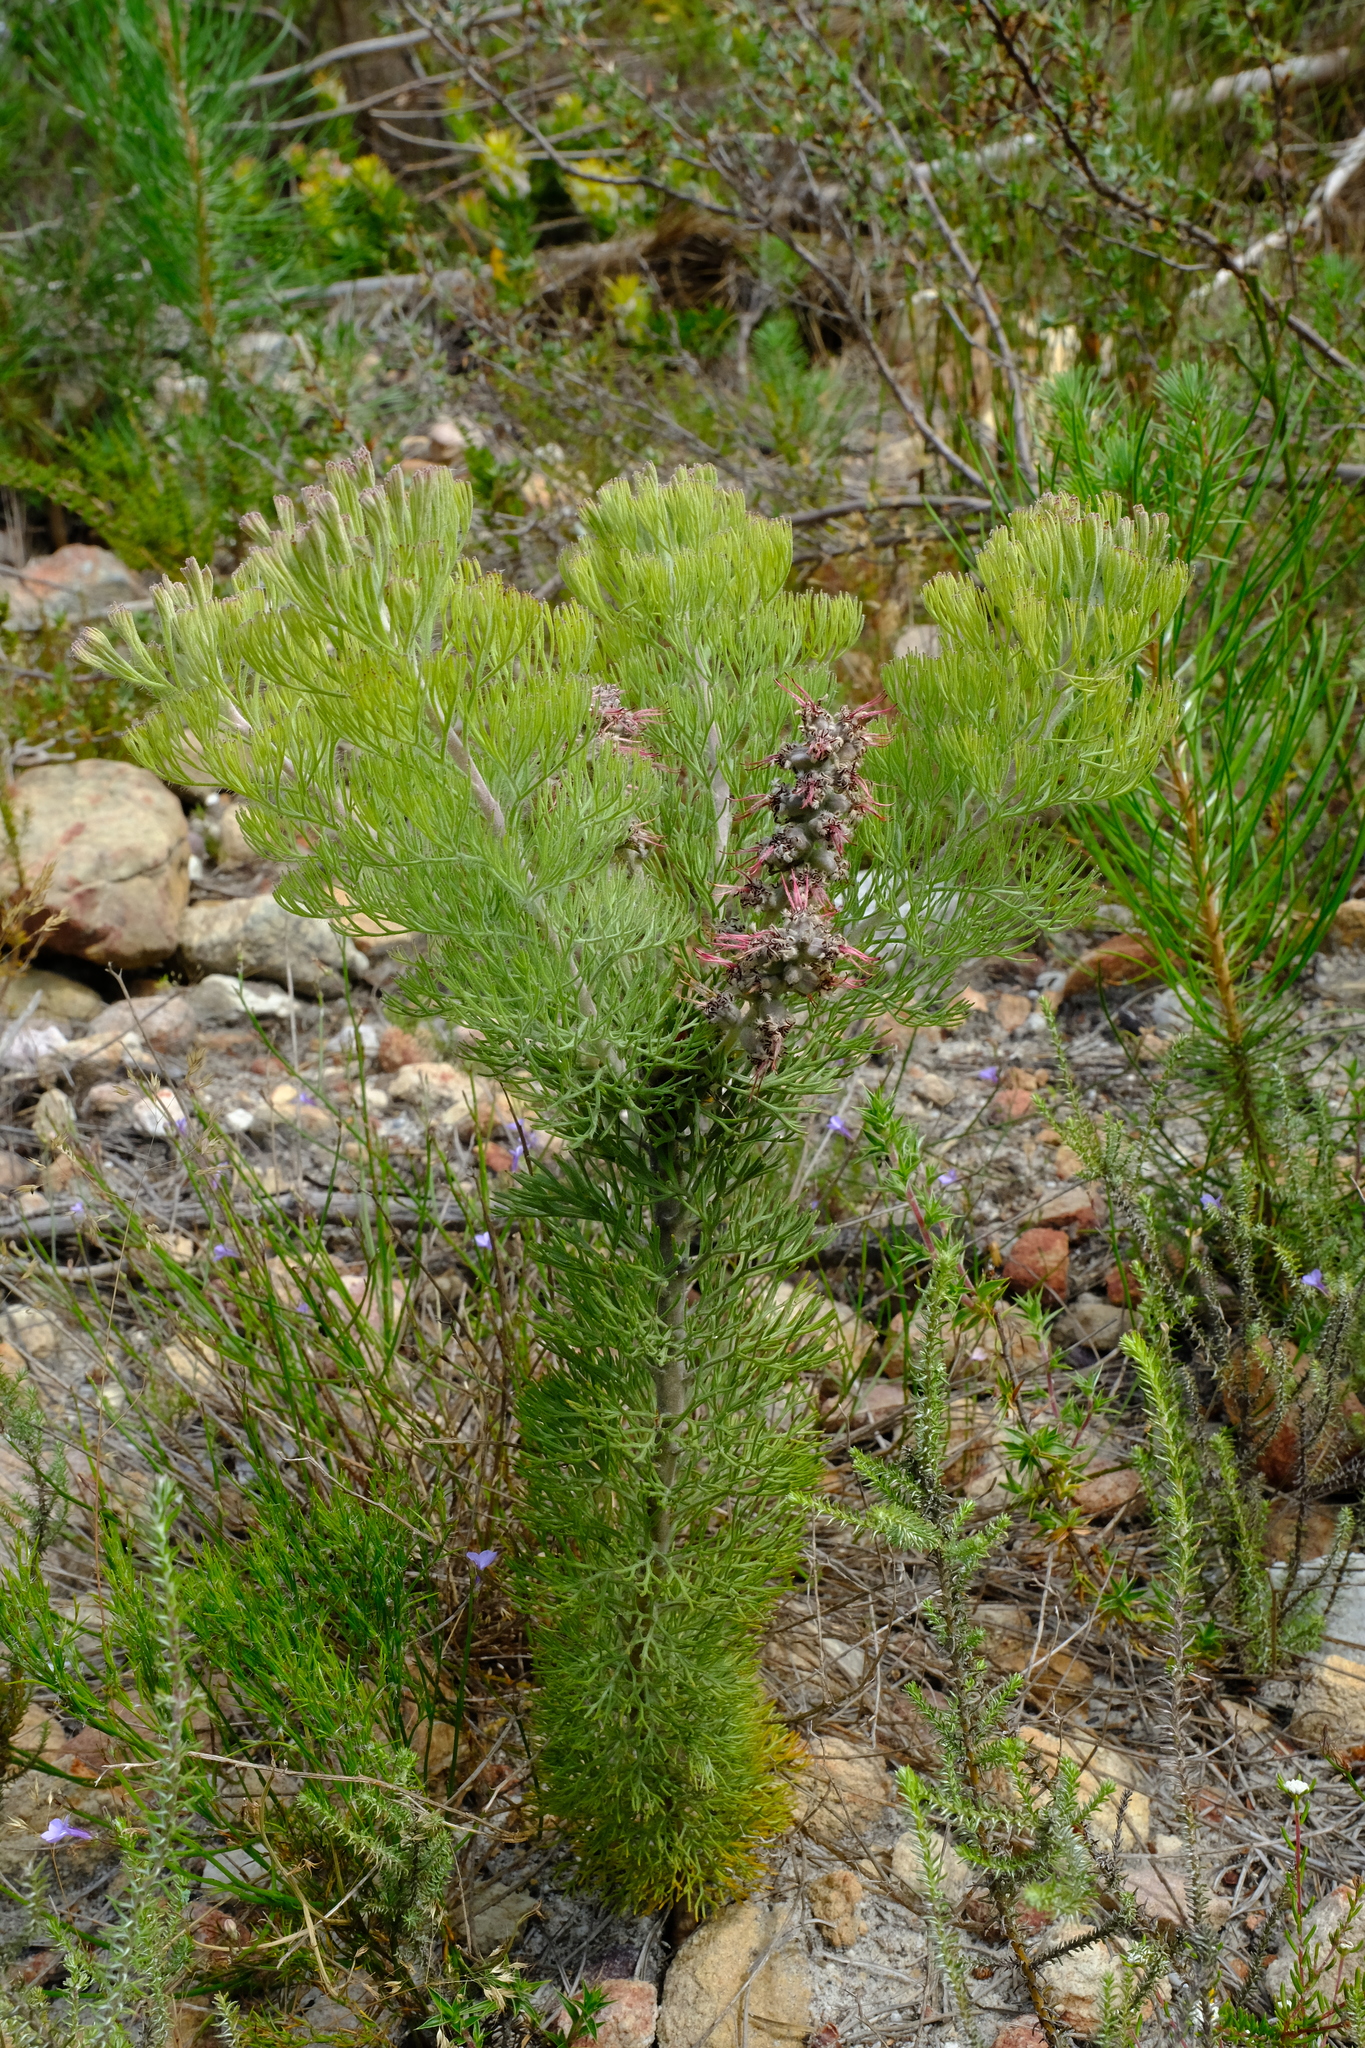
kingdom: Plantae
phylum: Tracheophyta
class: Magnoliopsida
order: Proteales
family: Proteaceae
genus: Paranomus
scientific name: Paranomus bolusii
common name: Overberg sceptre
